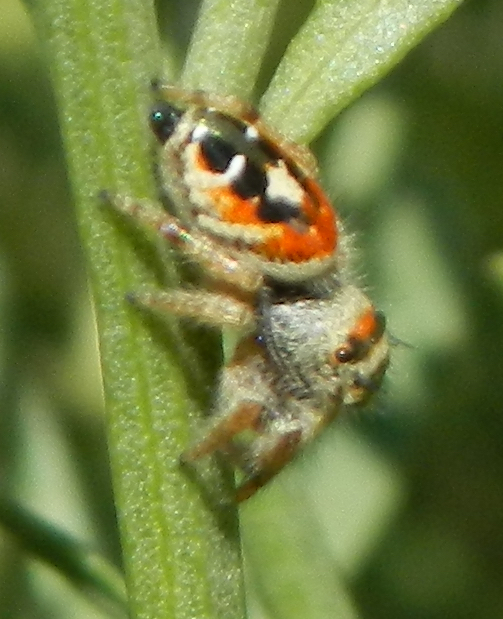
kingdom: Animalia
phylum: Arthropoda
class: Arachnida
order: Araneae
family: Salticidae
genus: Phidippus
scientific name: Phidippus californicus
